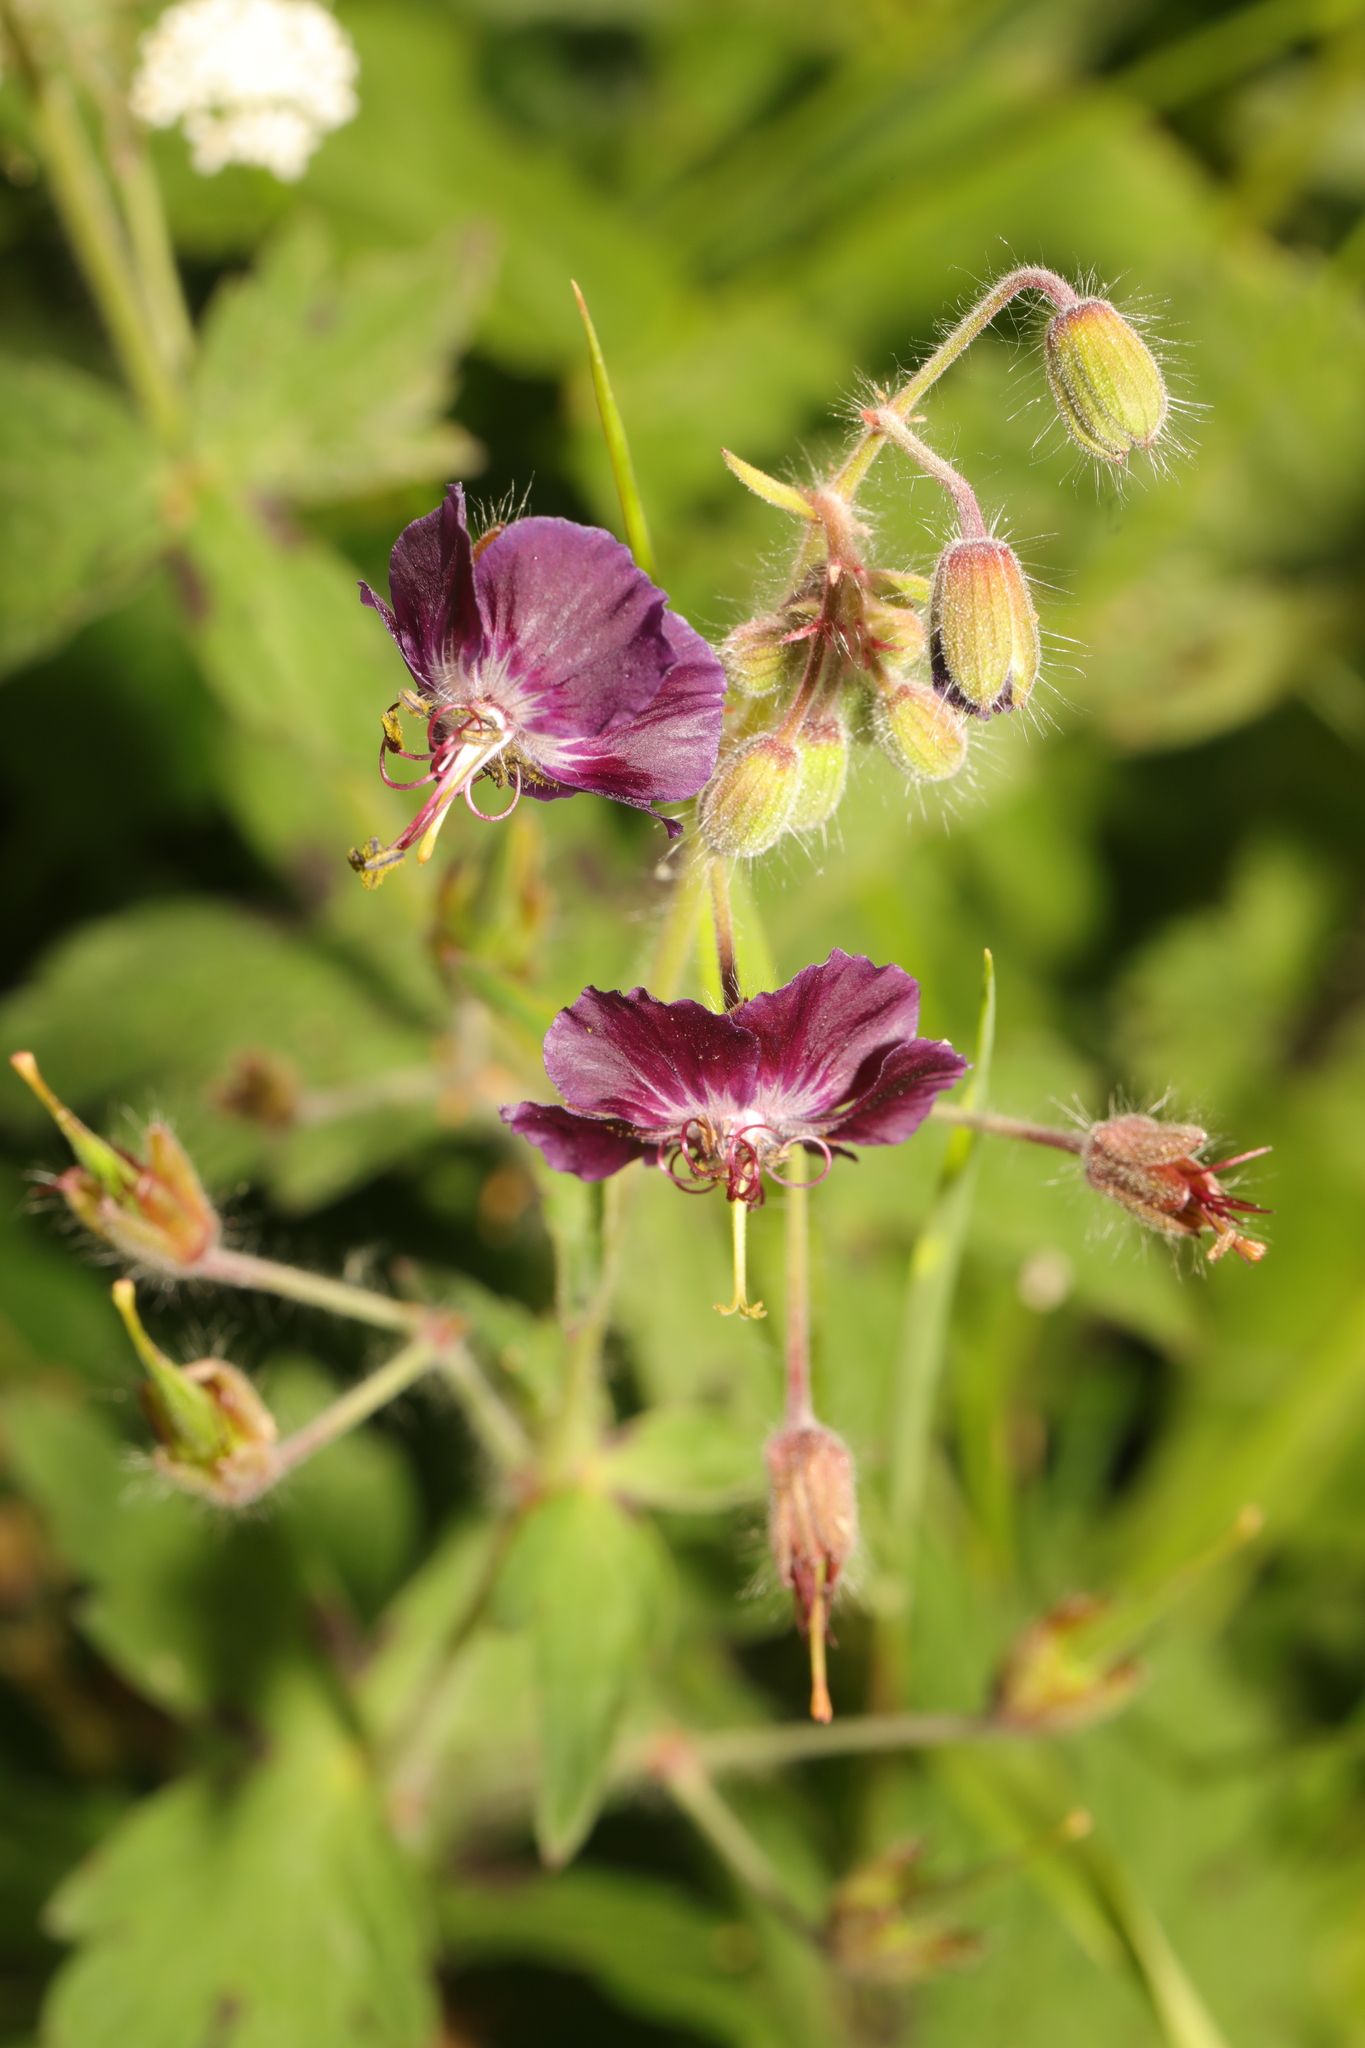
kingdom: Plantae
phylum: Tracheophyta
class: Magnoliopsida
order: Geraniales
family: Geraniaceae
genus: Geranium
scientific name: Geranium phaeum
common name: Dusky crane's-bill
